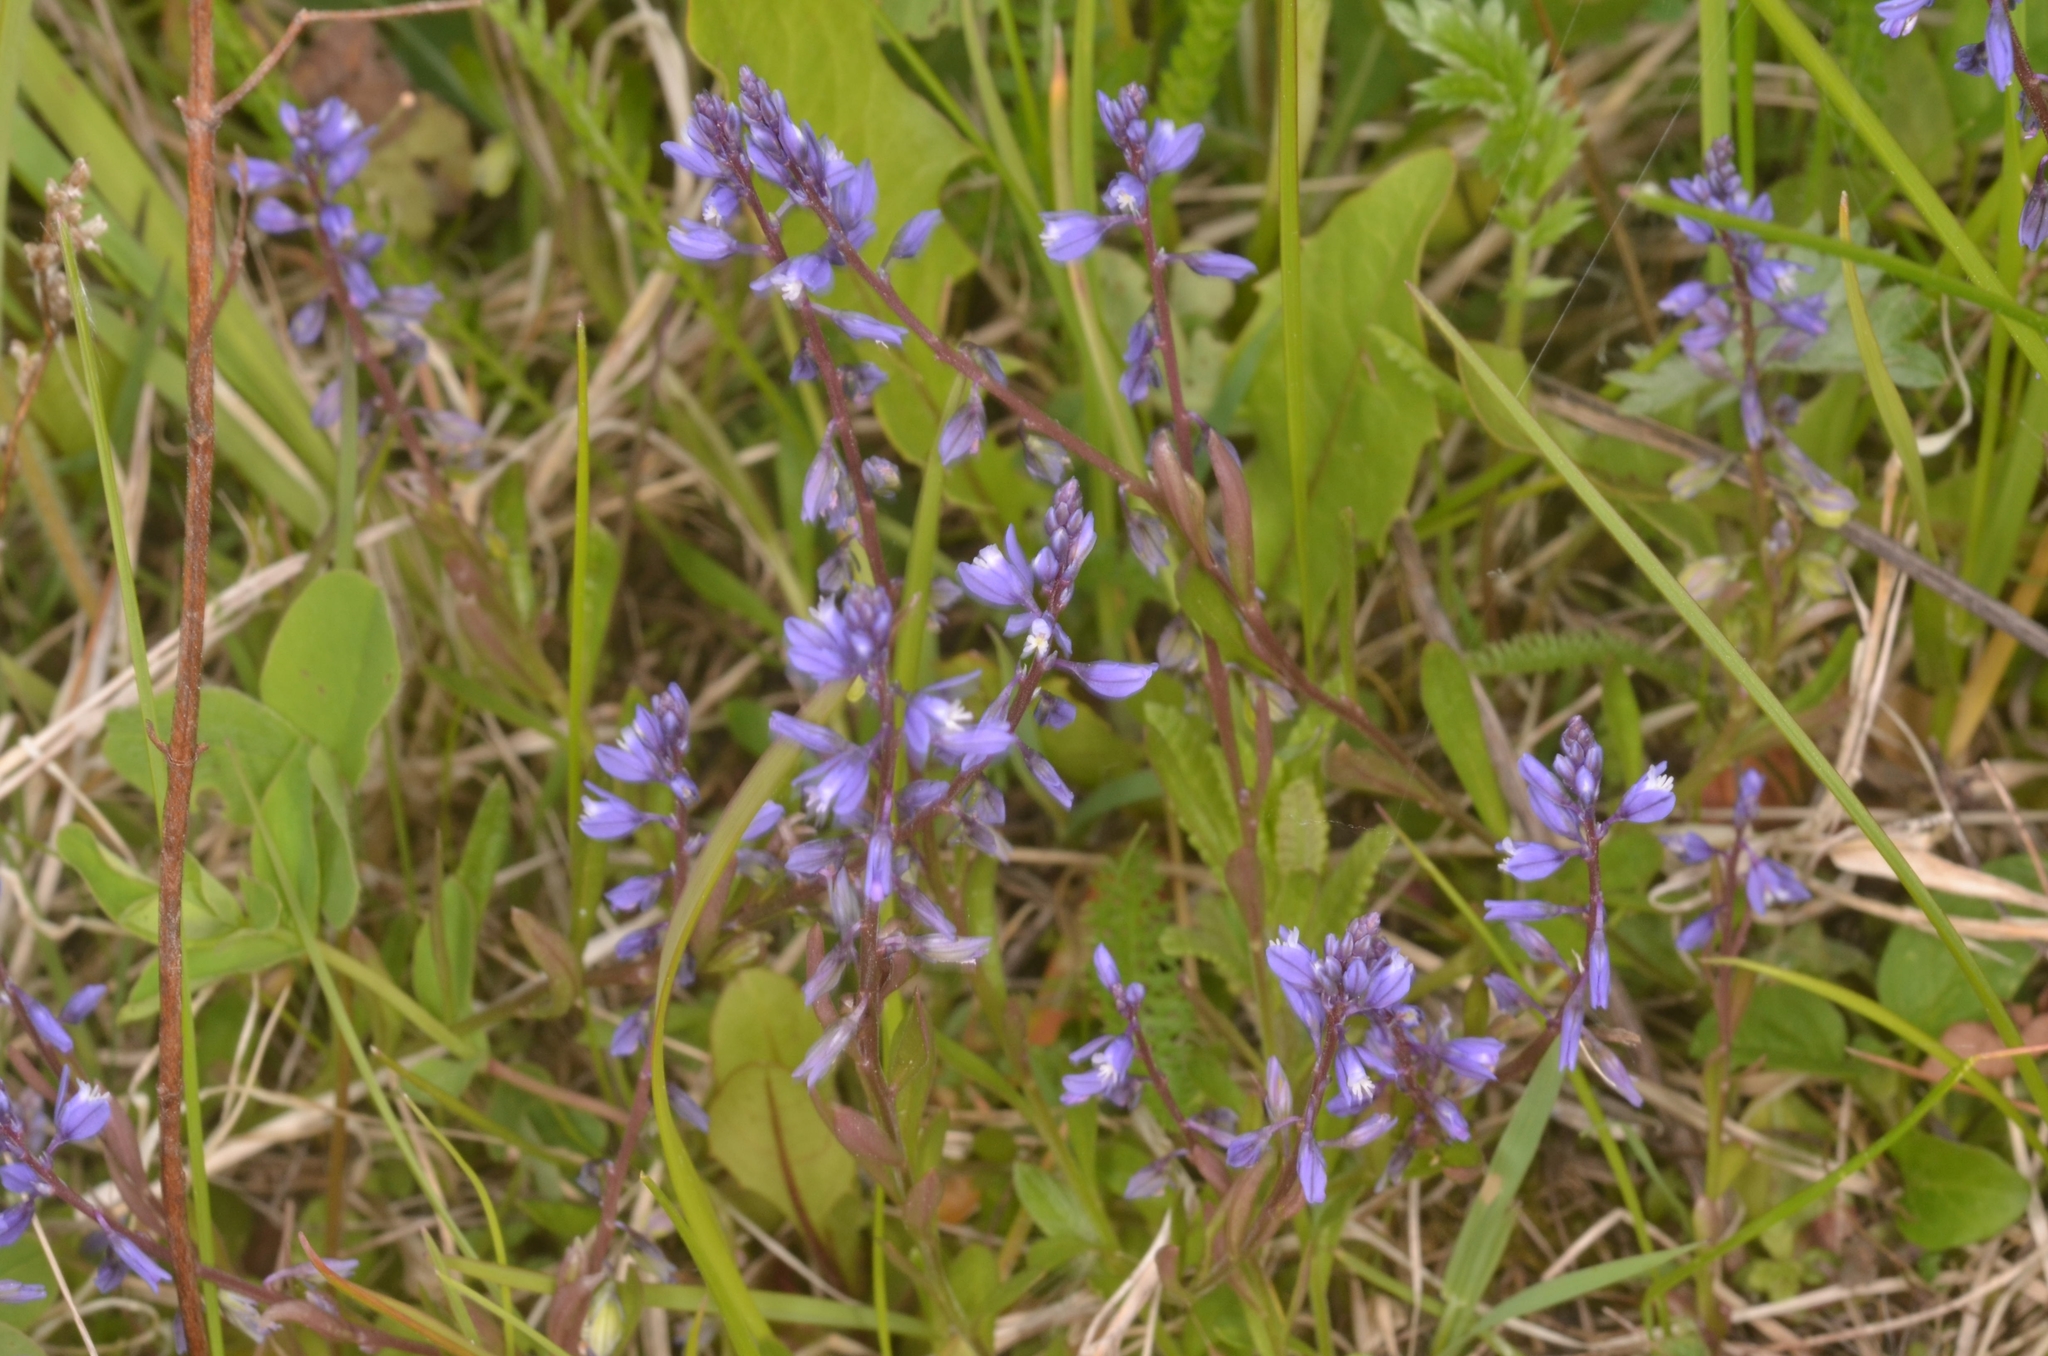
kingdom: Plantae
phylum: Tracheophyta
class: Magnoliopsida
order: Fabales
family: Polygalaceae
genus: Polygala
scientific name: Polygala amarella
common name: Dwarf milkwort
